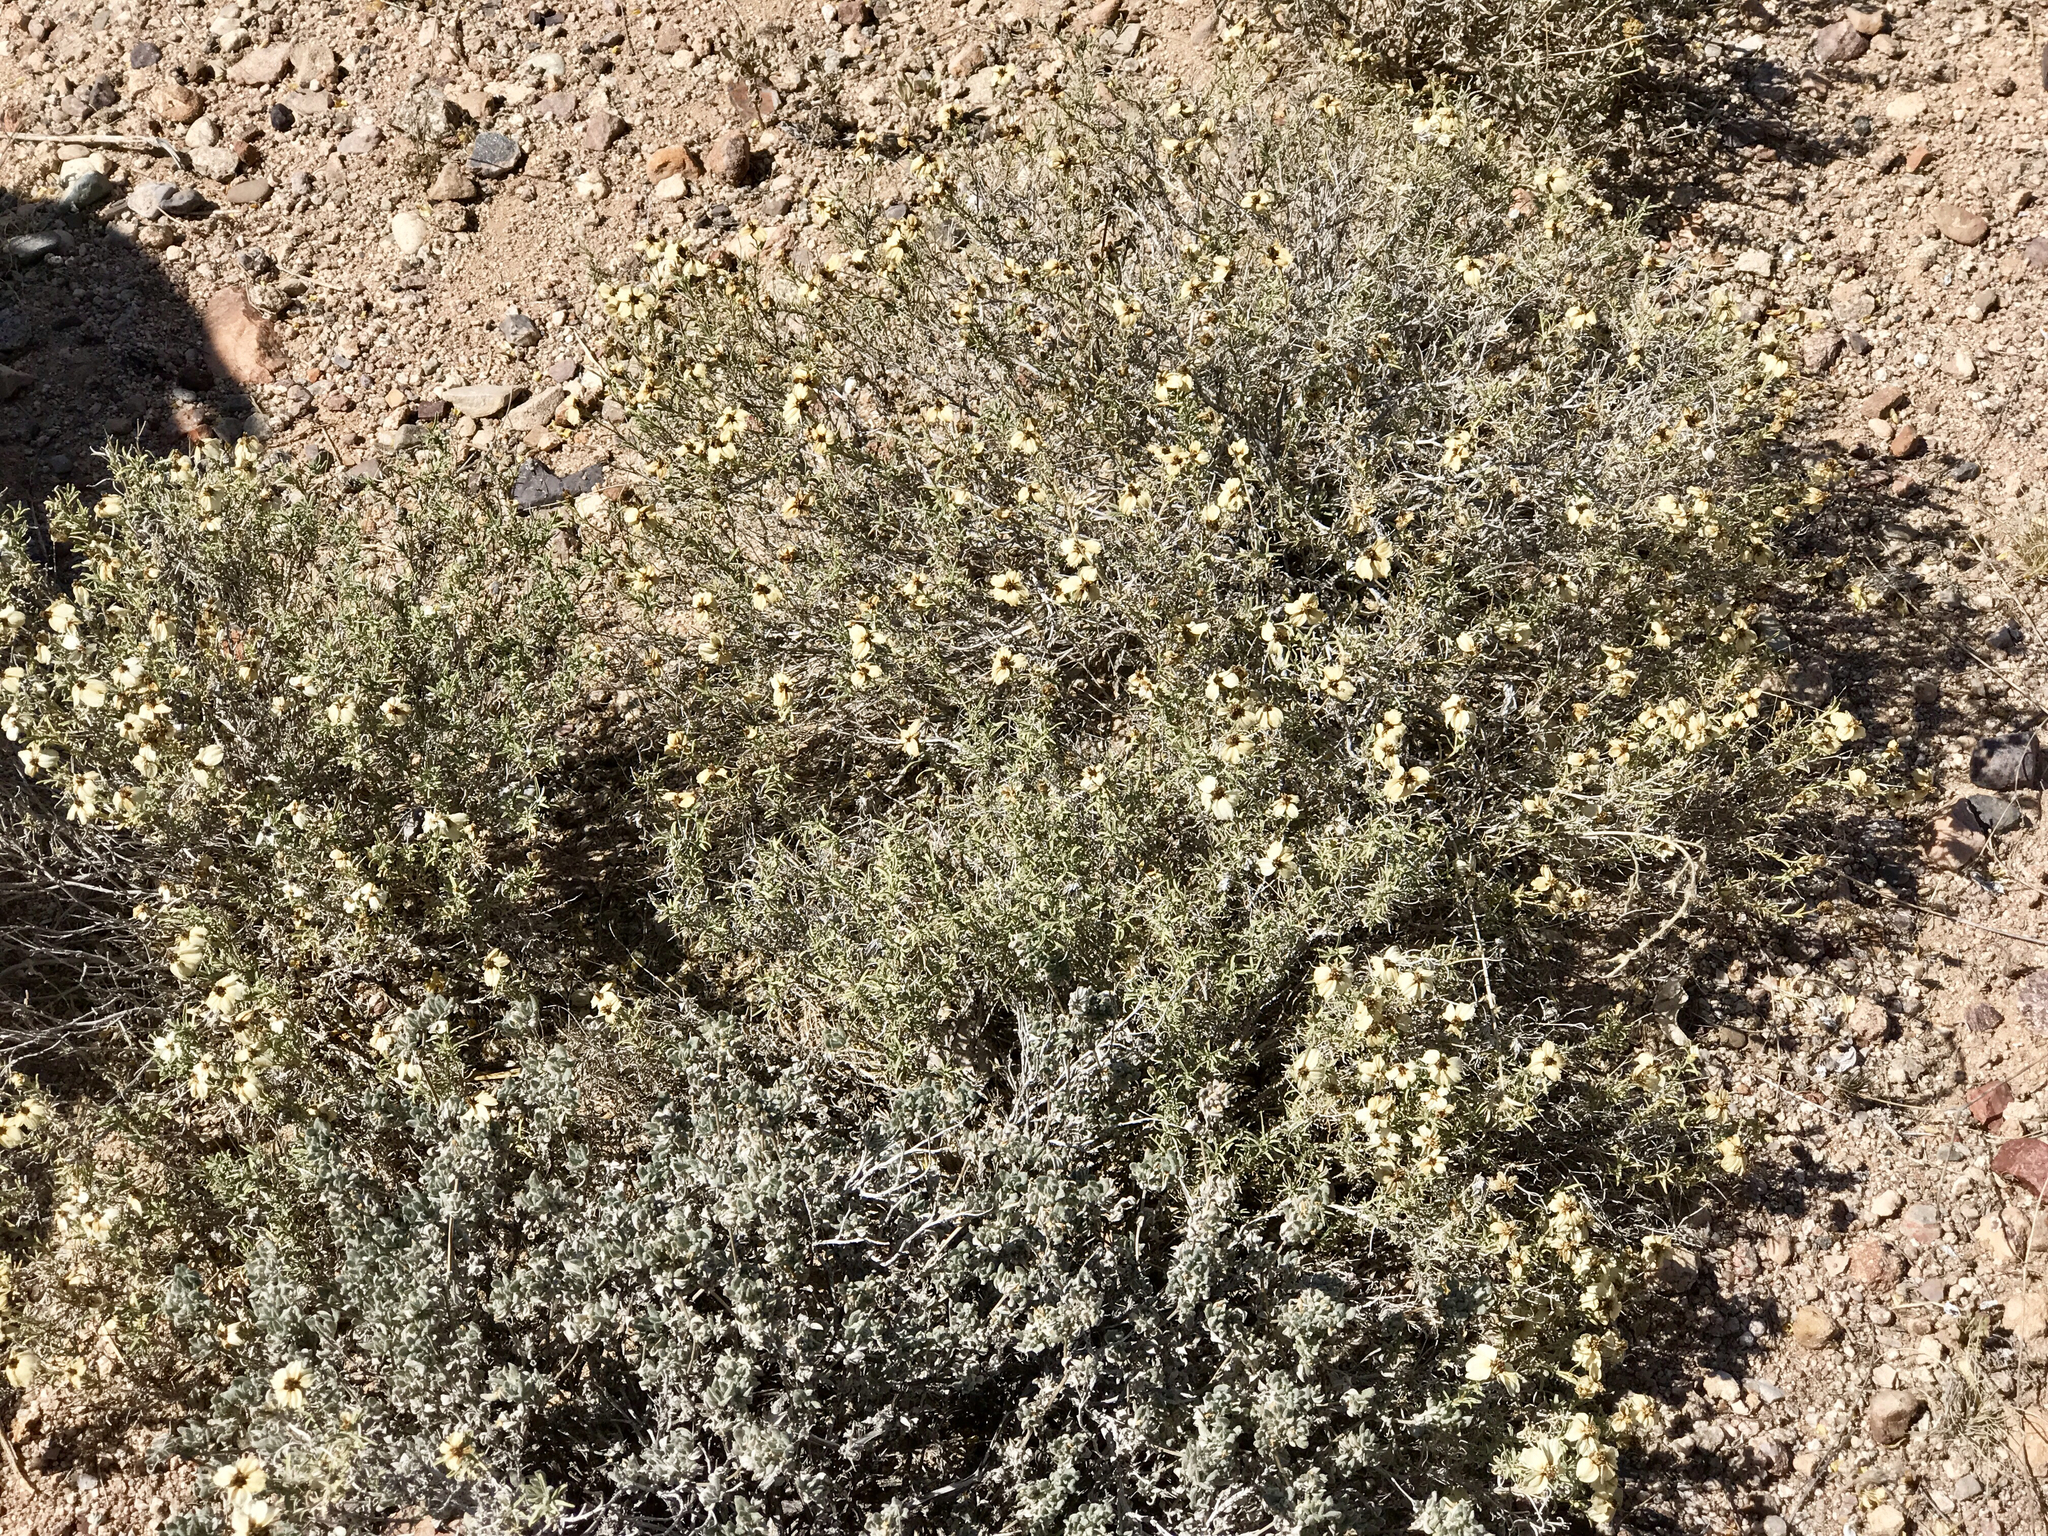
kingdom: Plantae
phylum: Tracheophyta
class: Magnoliopsida
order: Asterales
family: Asteraceae
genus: Zinnia
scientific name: Zinnia acerosa
